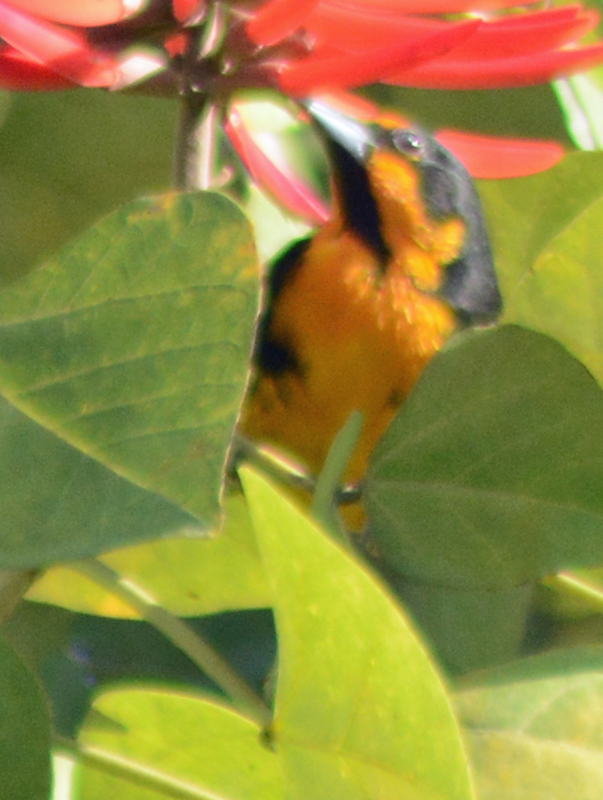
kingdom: Animalia
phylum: Chordata
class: Aves
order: Passeriformes
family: Icteridae
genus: Icterus
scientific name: Icterus abeillei
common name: Black-backed oriole
